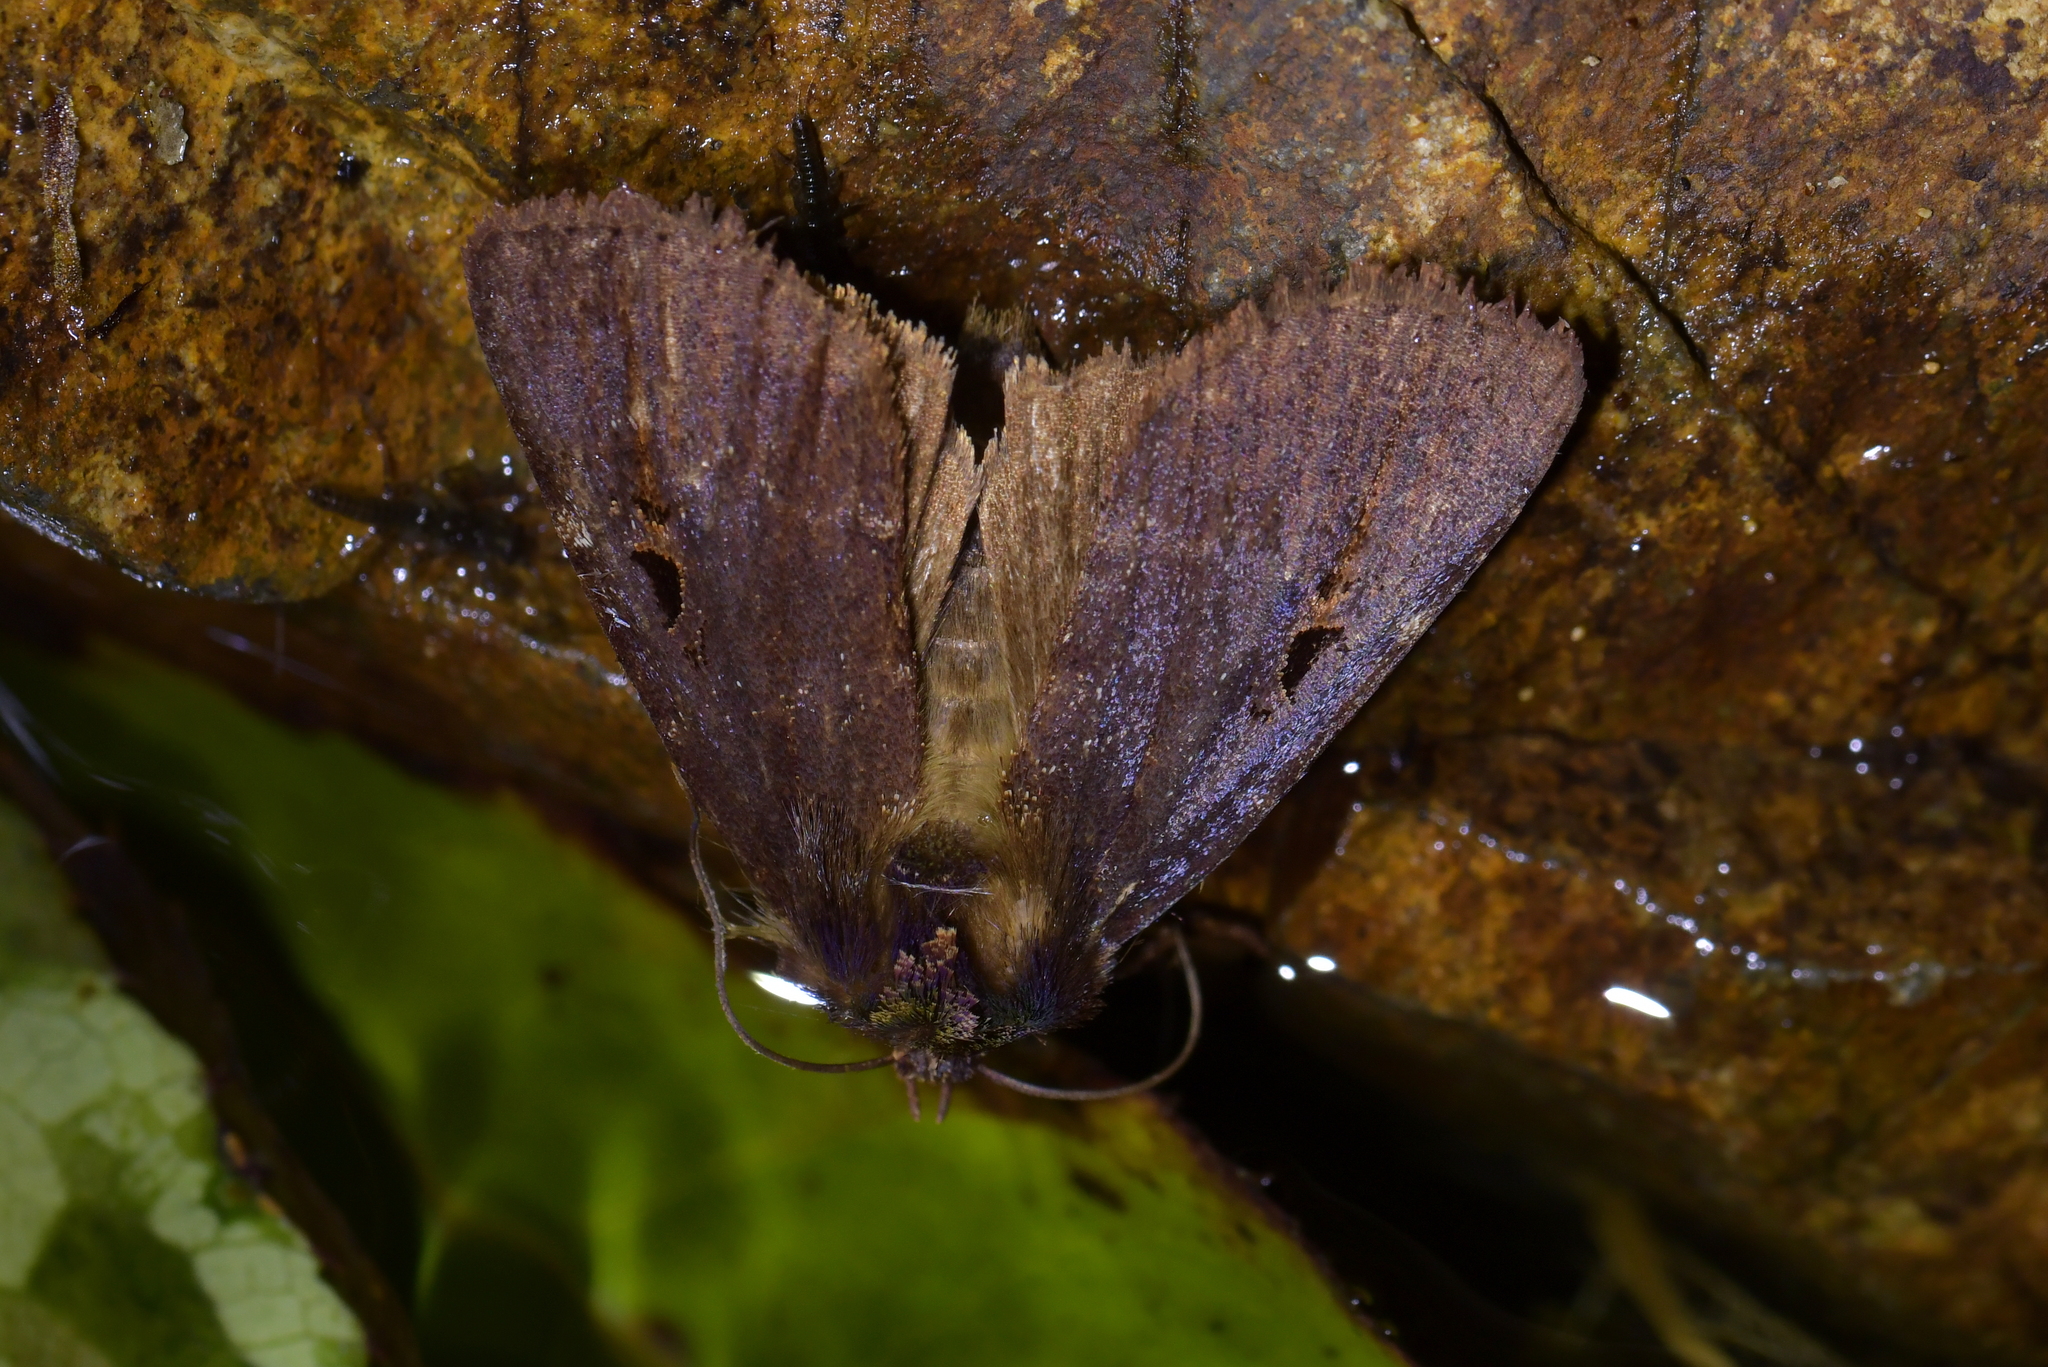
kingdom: Animalia
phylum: Arthropoda
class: Insecta
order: Lepidoptera
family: Noctuidae
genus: Austramathes
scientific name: Austramathes purpurea
